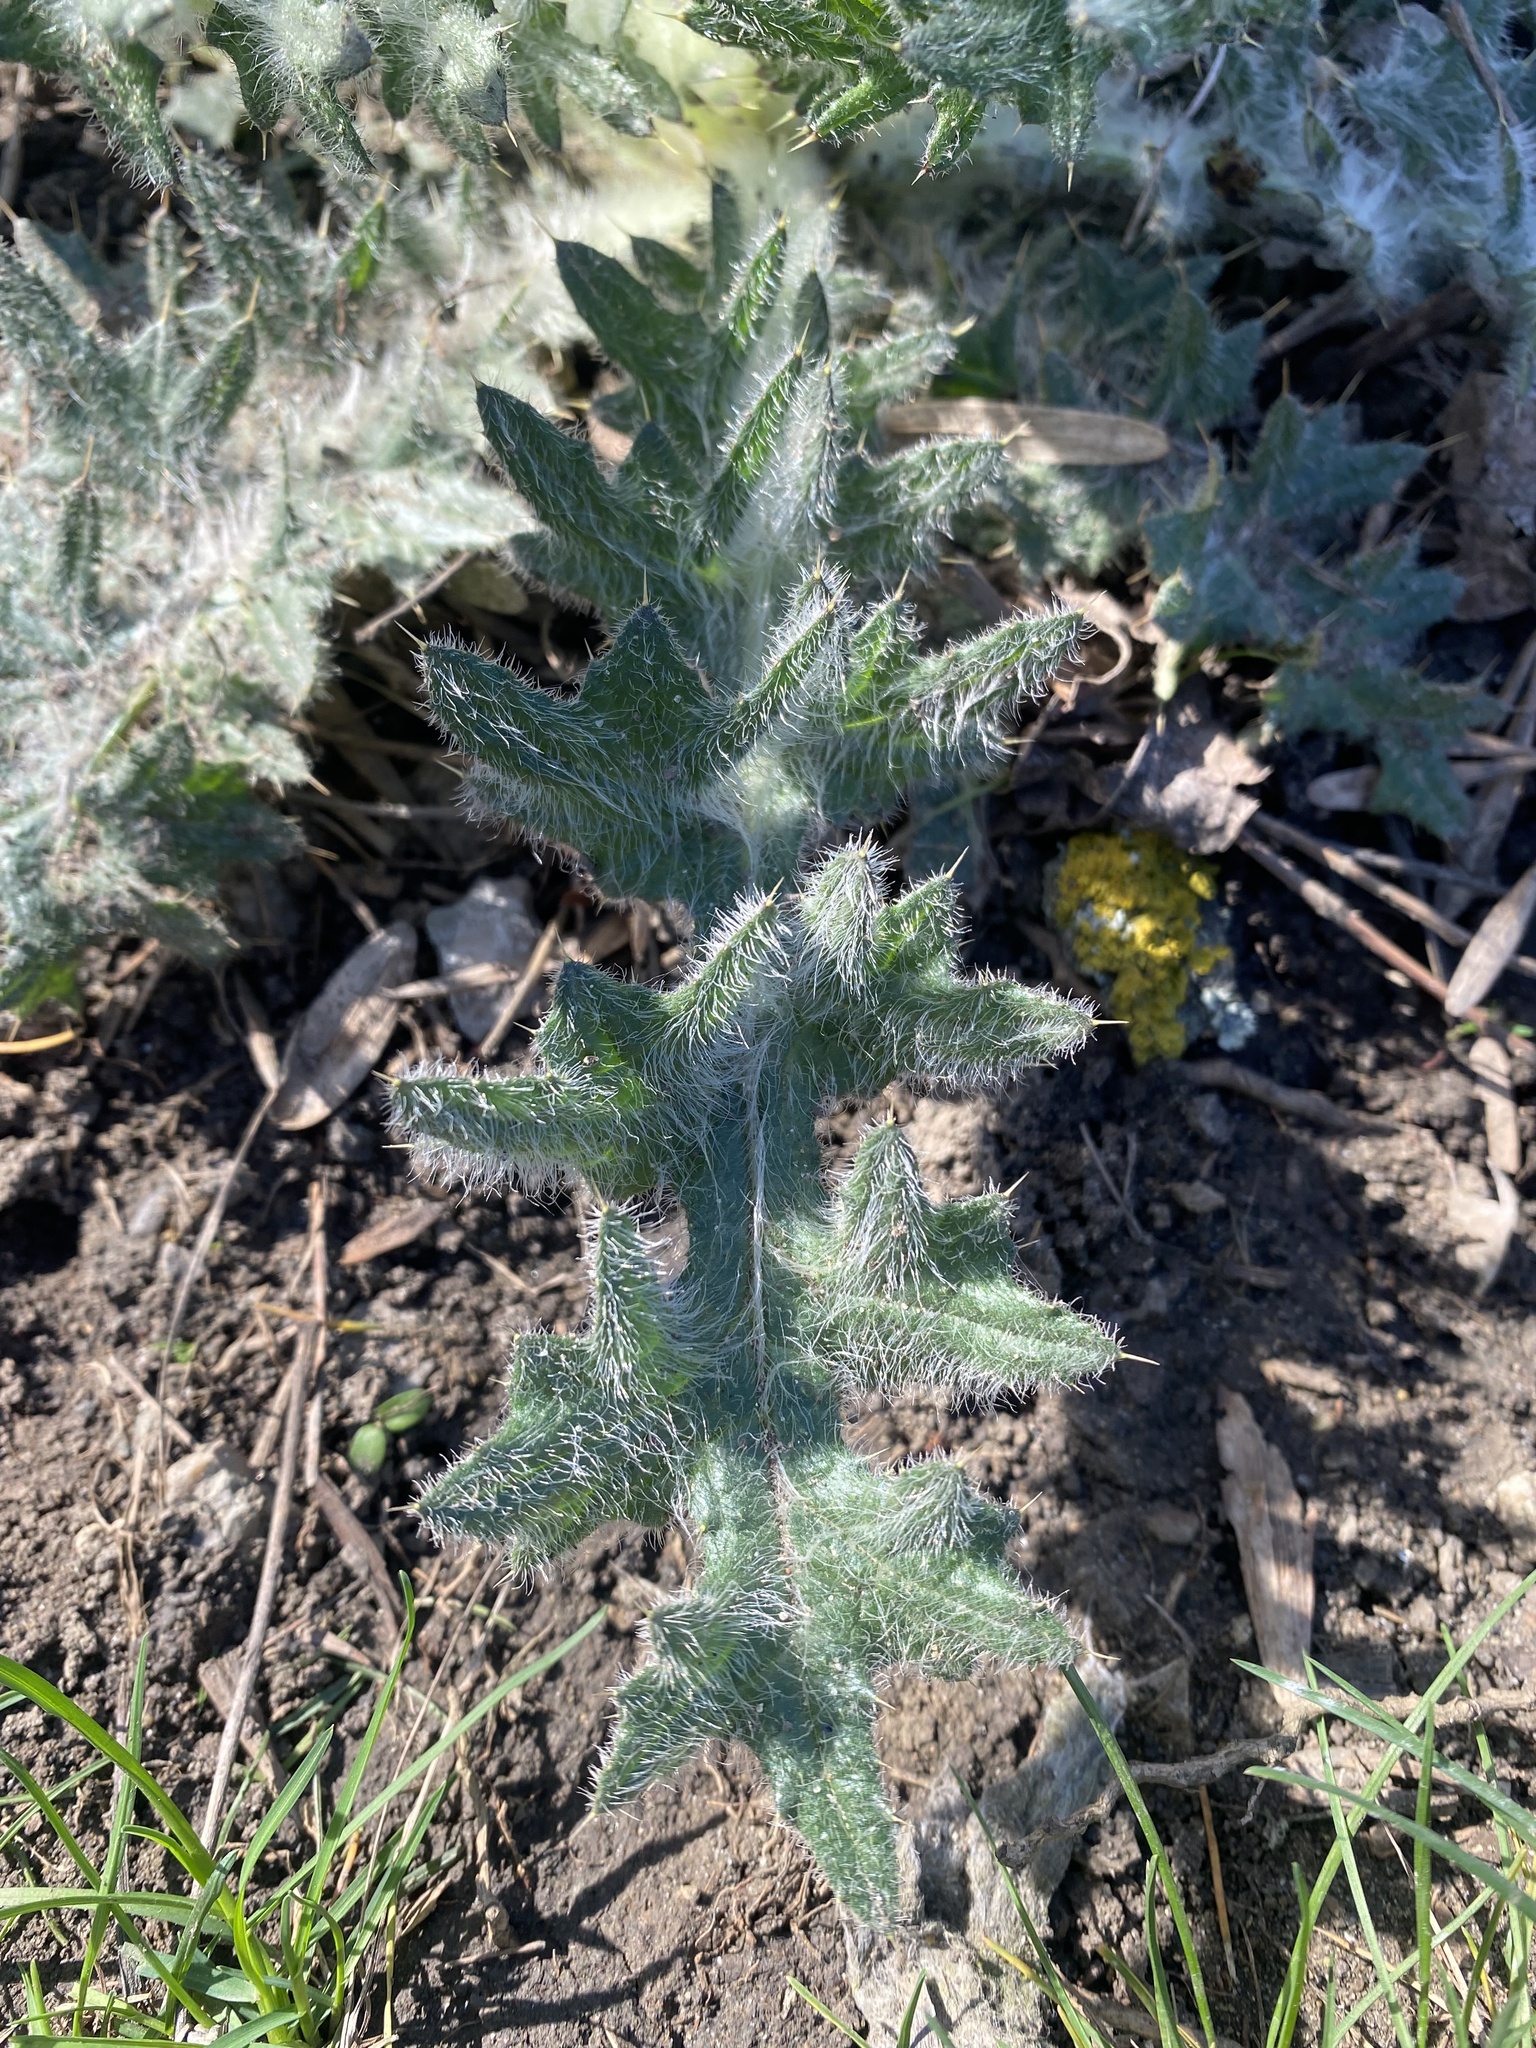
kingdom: Plantae
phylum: Tracheophyta
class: Magnoliopsida
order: Asterales
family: Asteraceae
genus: Cirsium
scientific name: Cirsium vulgare
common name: Bull thistle
